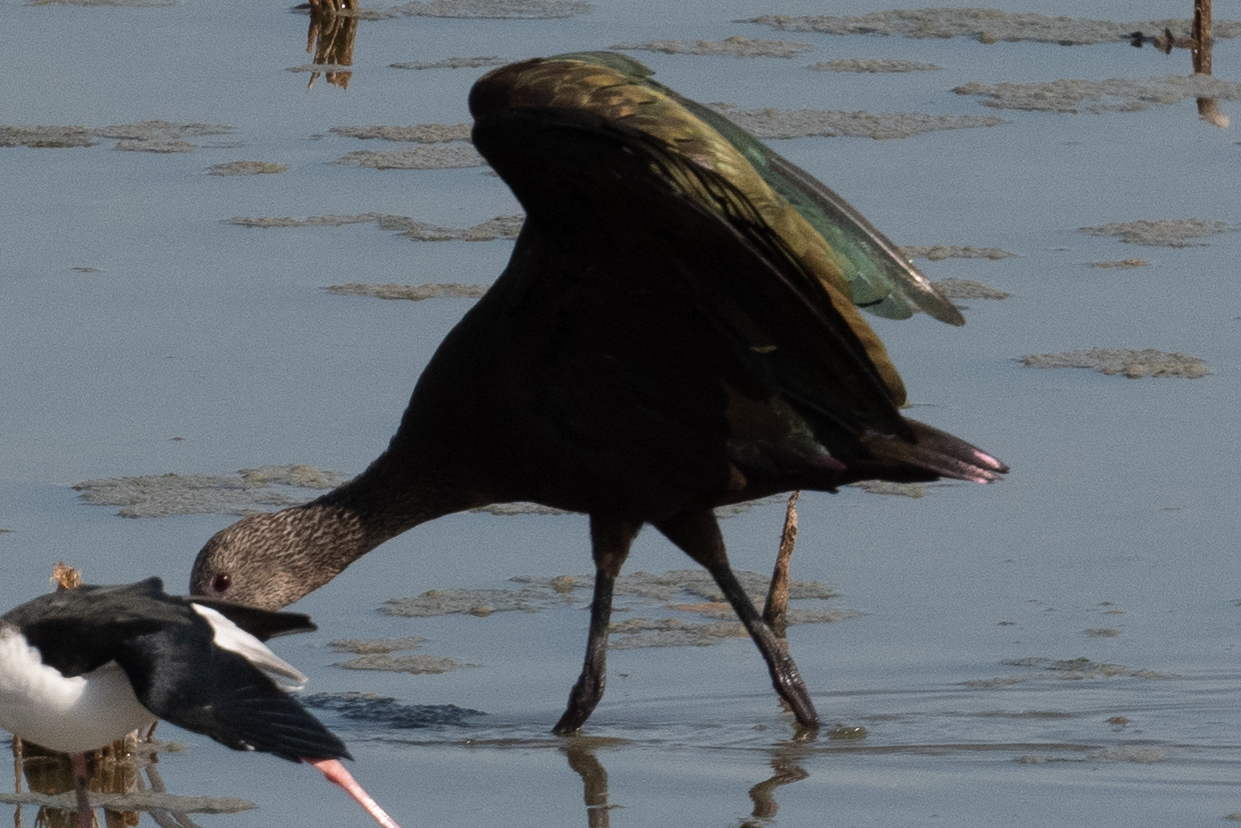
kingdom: Animalia
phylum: Chordata
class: Aves
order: Pelecaniformes
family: Threskiornithidae
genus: Plegadis
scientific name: Plegadis chihi
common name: White-faced ibis
